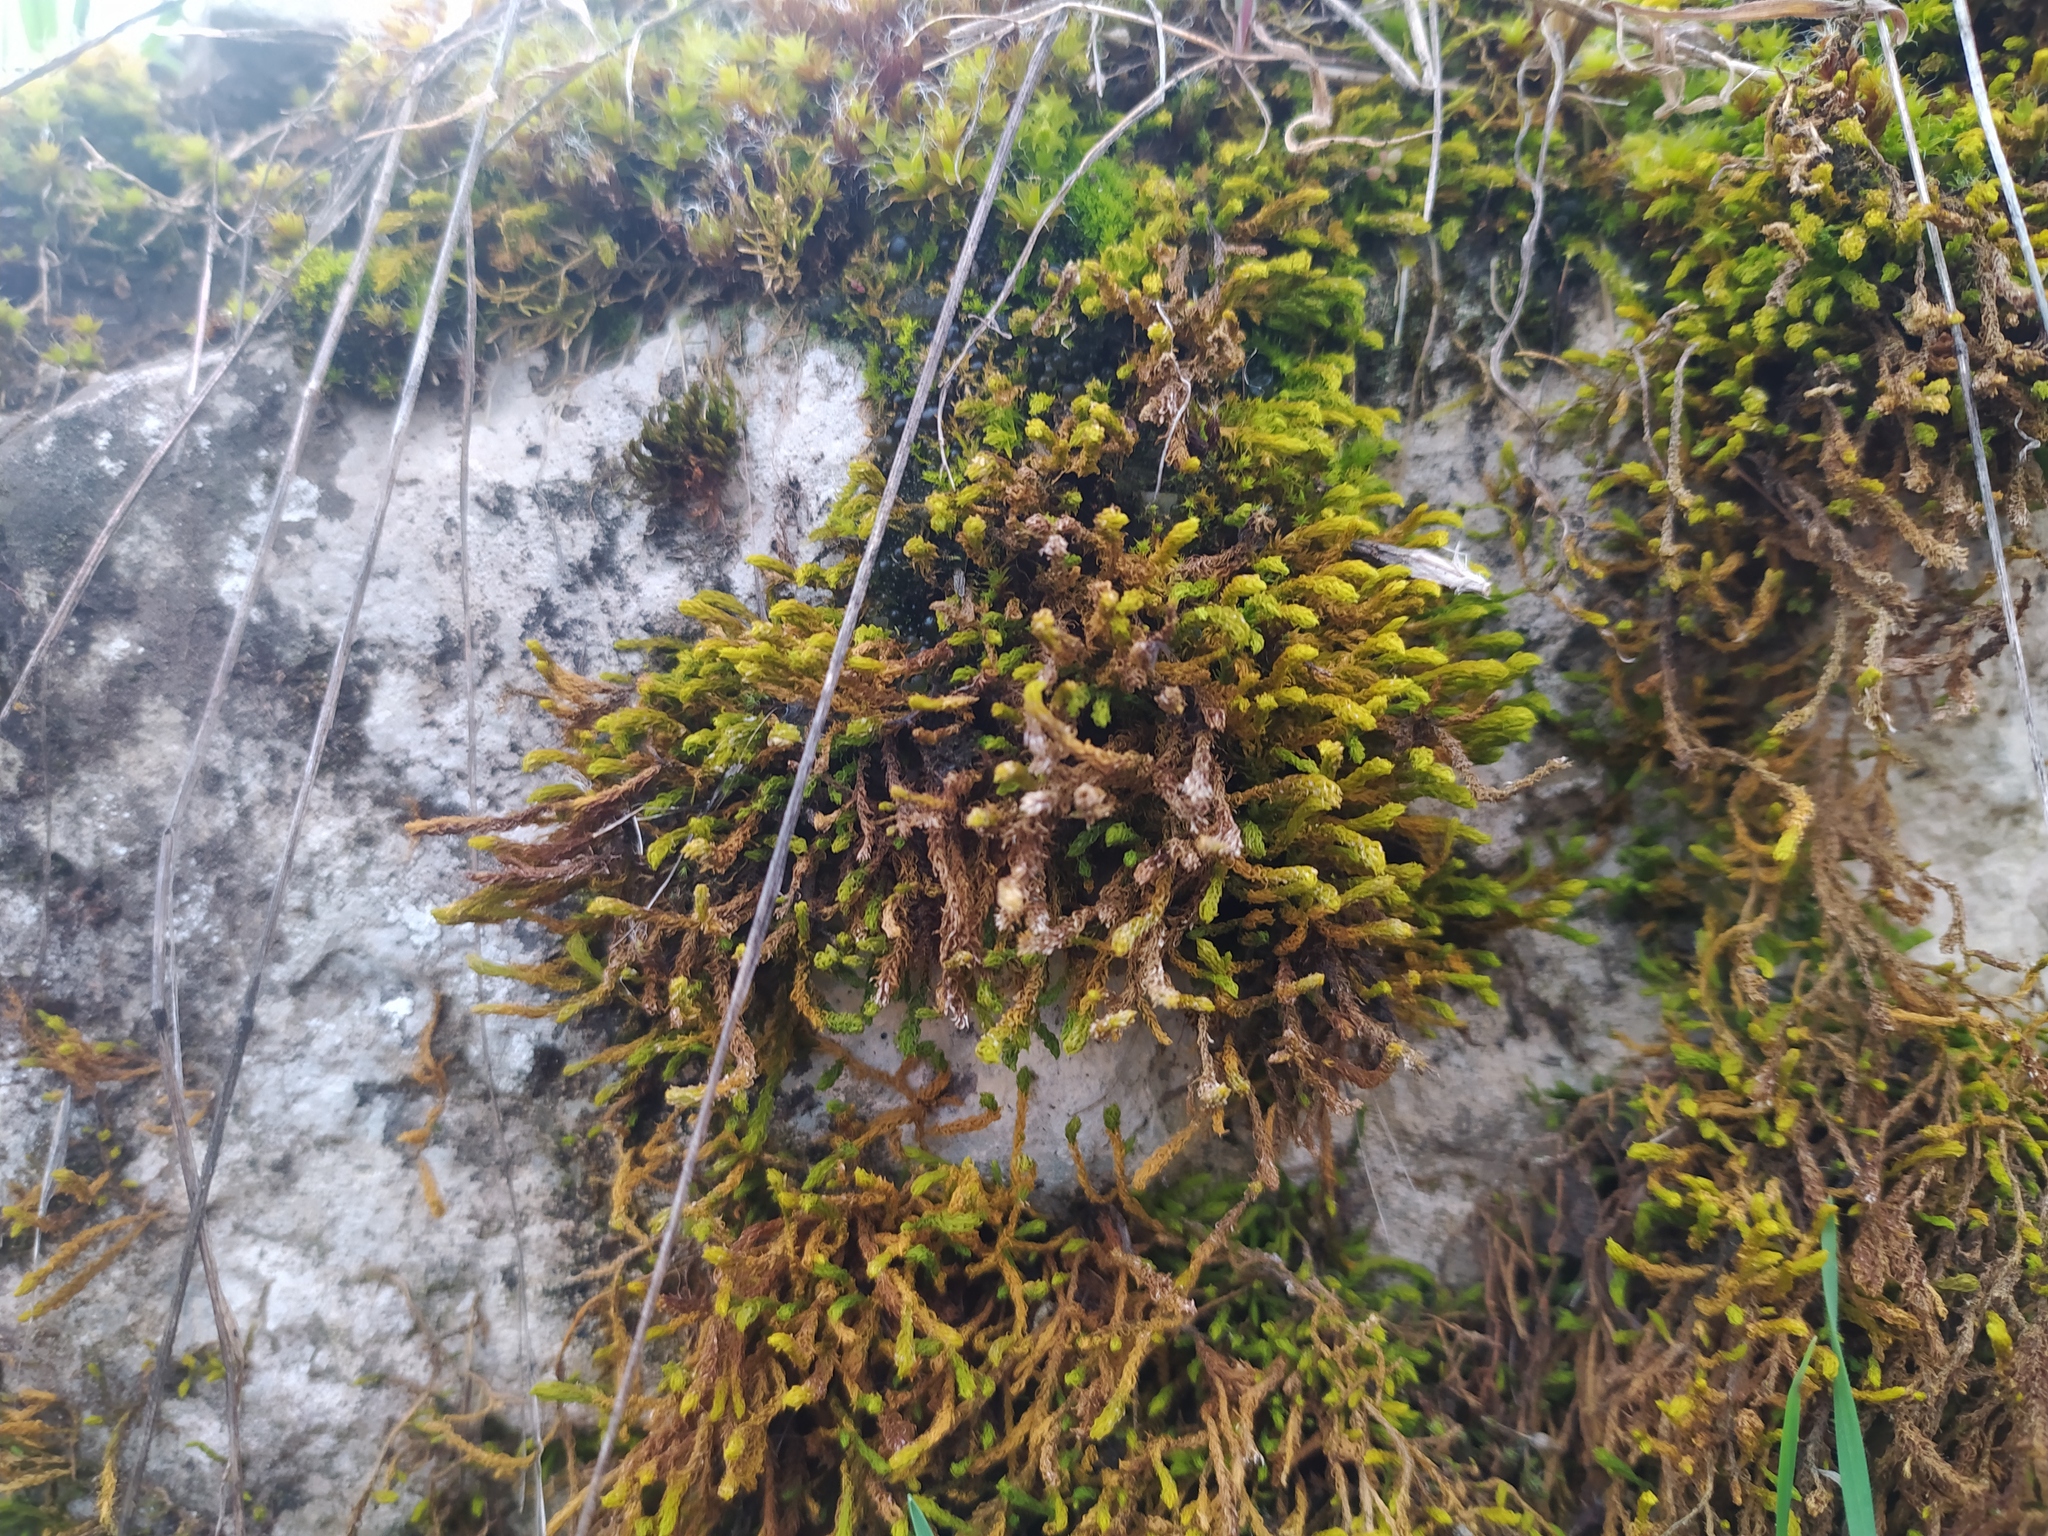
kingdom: Plantae
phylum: Bryophyta
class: Bryopsida
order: Hypnales
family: Anomodontaceae
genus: Anomodon
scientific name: Anomodon viticulosus
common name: Tall anomodon
